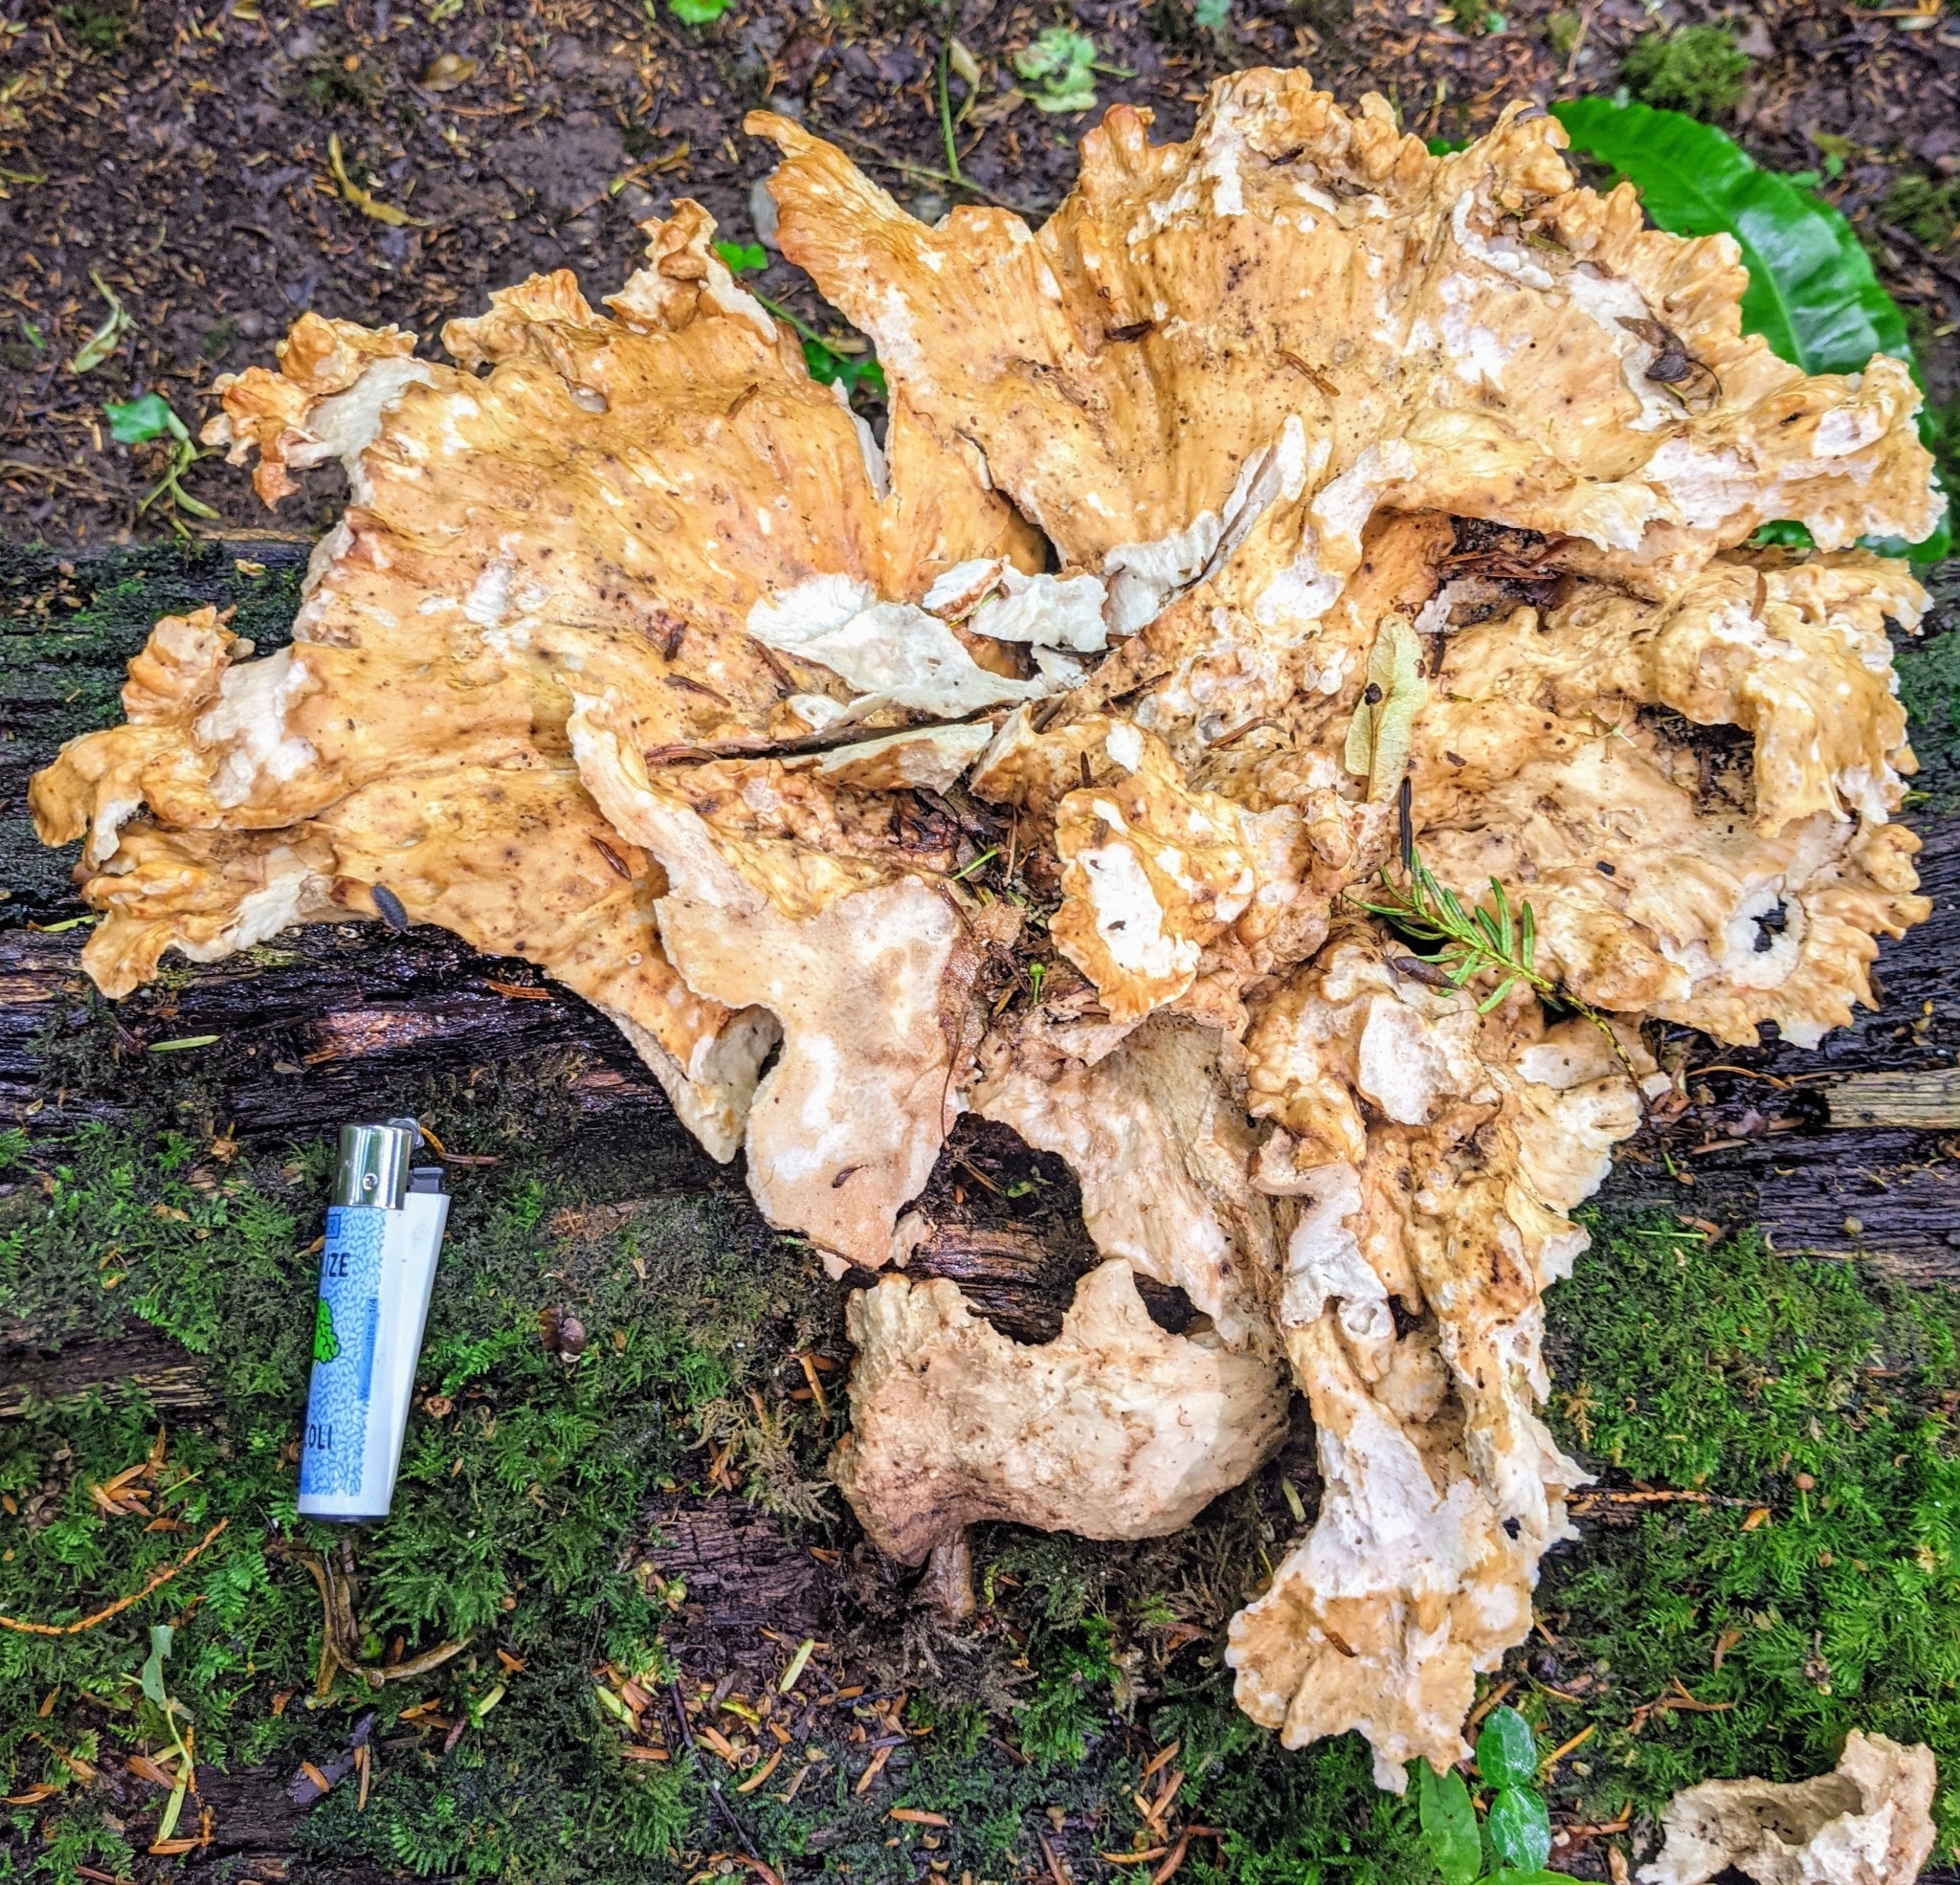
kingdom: Fungi
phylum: Basidiomycota
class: Agaricomycetes
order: Polyporales
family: Laetiporaceae
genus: Laetiporus
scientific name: Laetiporus sulphureus
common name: Chicken of the woods
